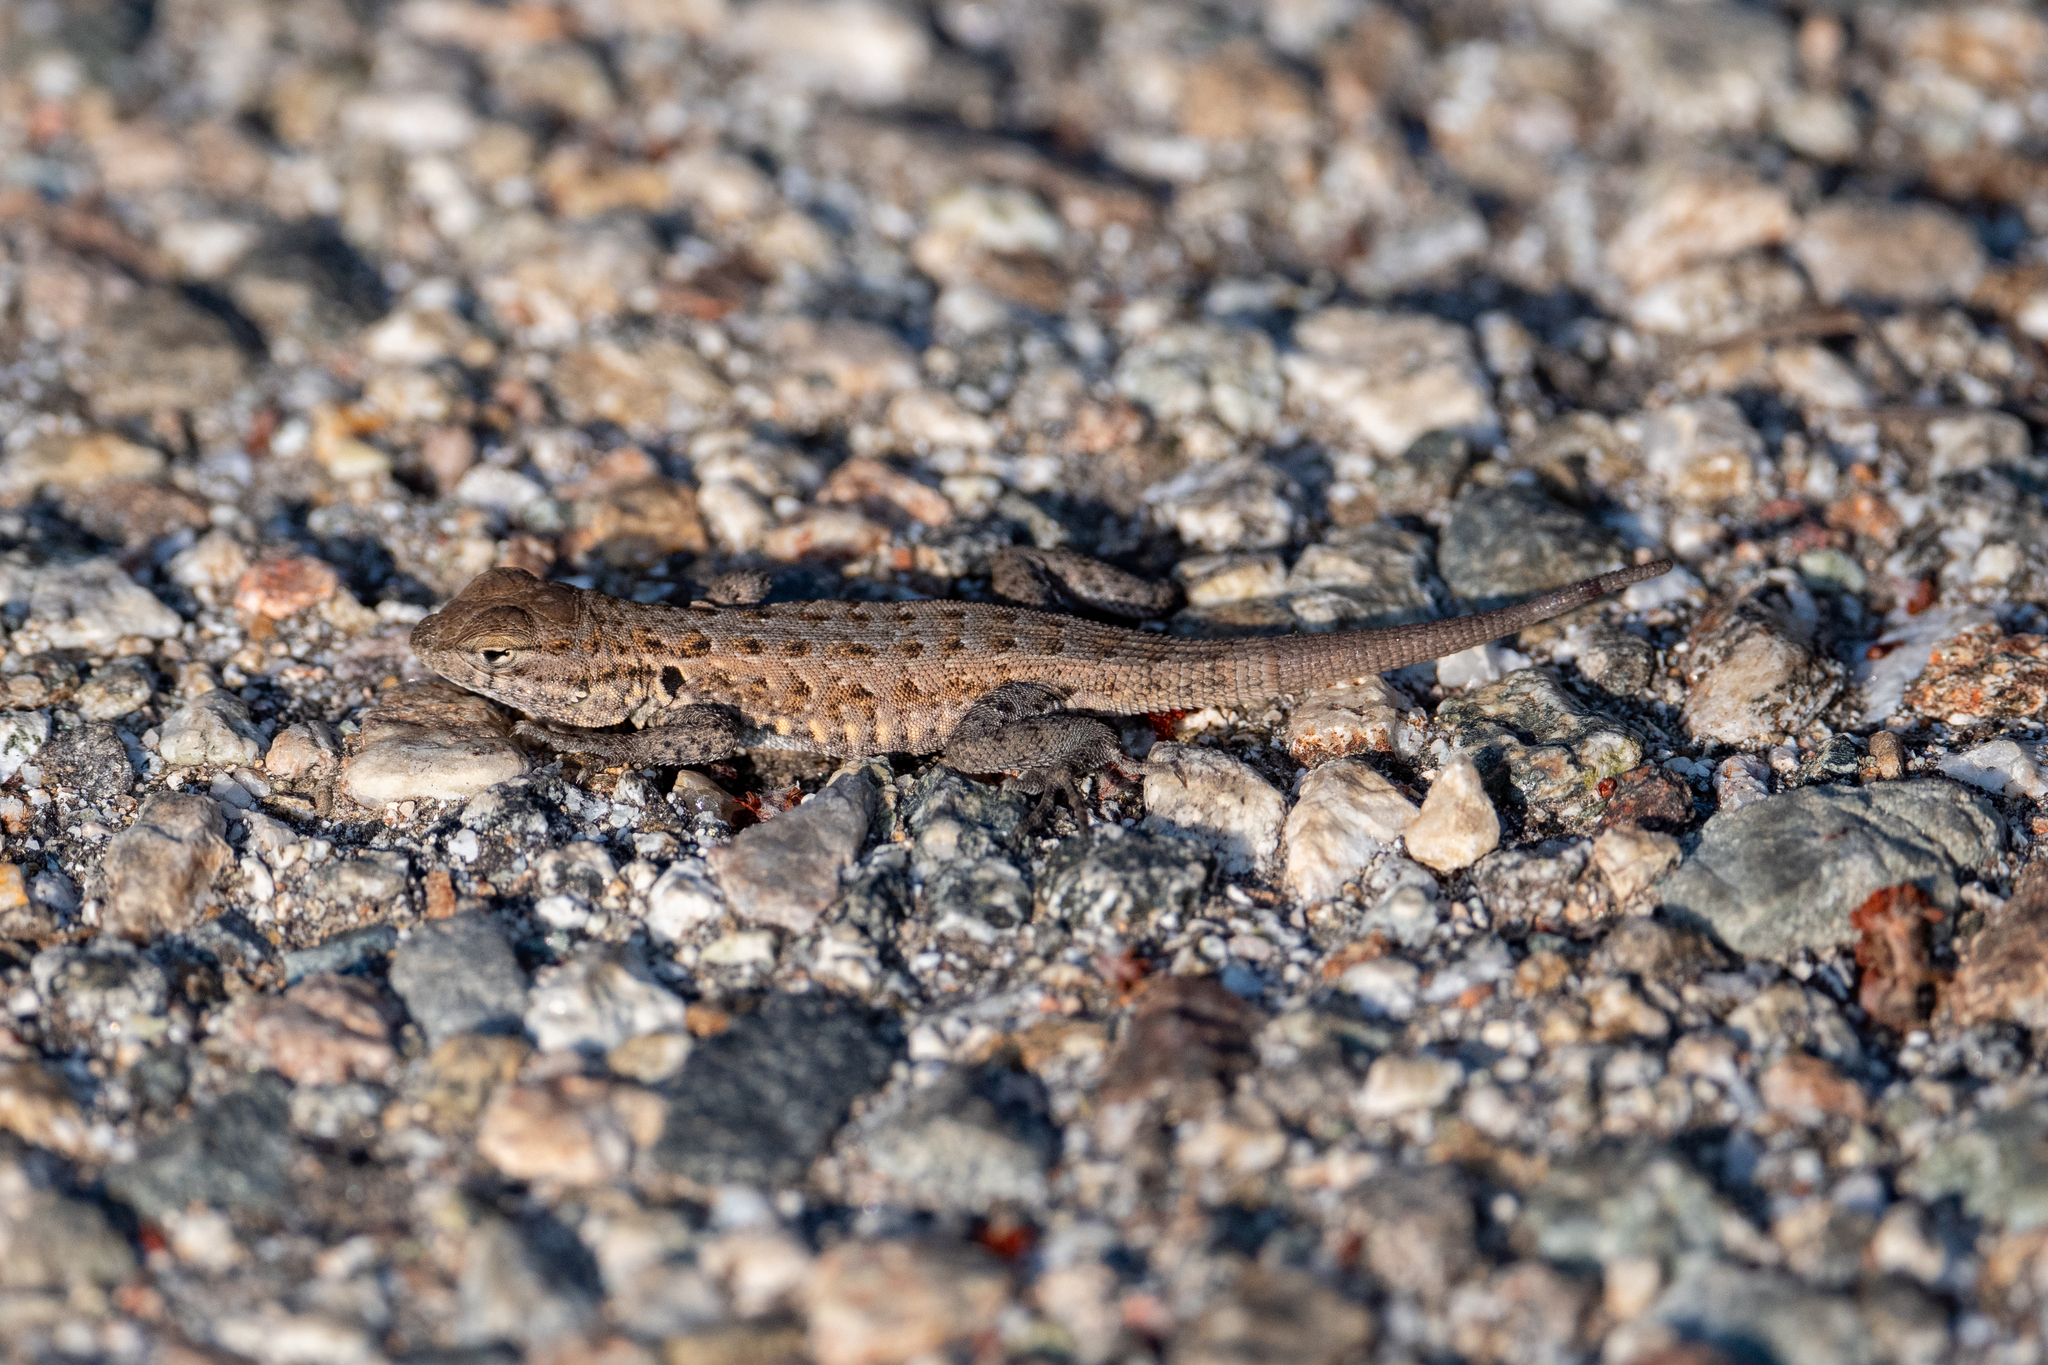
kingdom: Animalia
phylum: Chordata
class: Squamata
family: Phrynosomatidae
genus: Uta
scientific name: Uta stansburiana
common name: Side-blotched lizard
